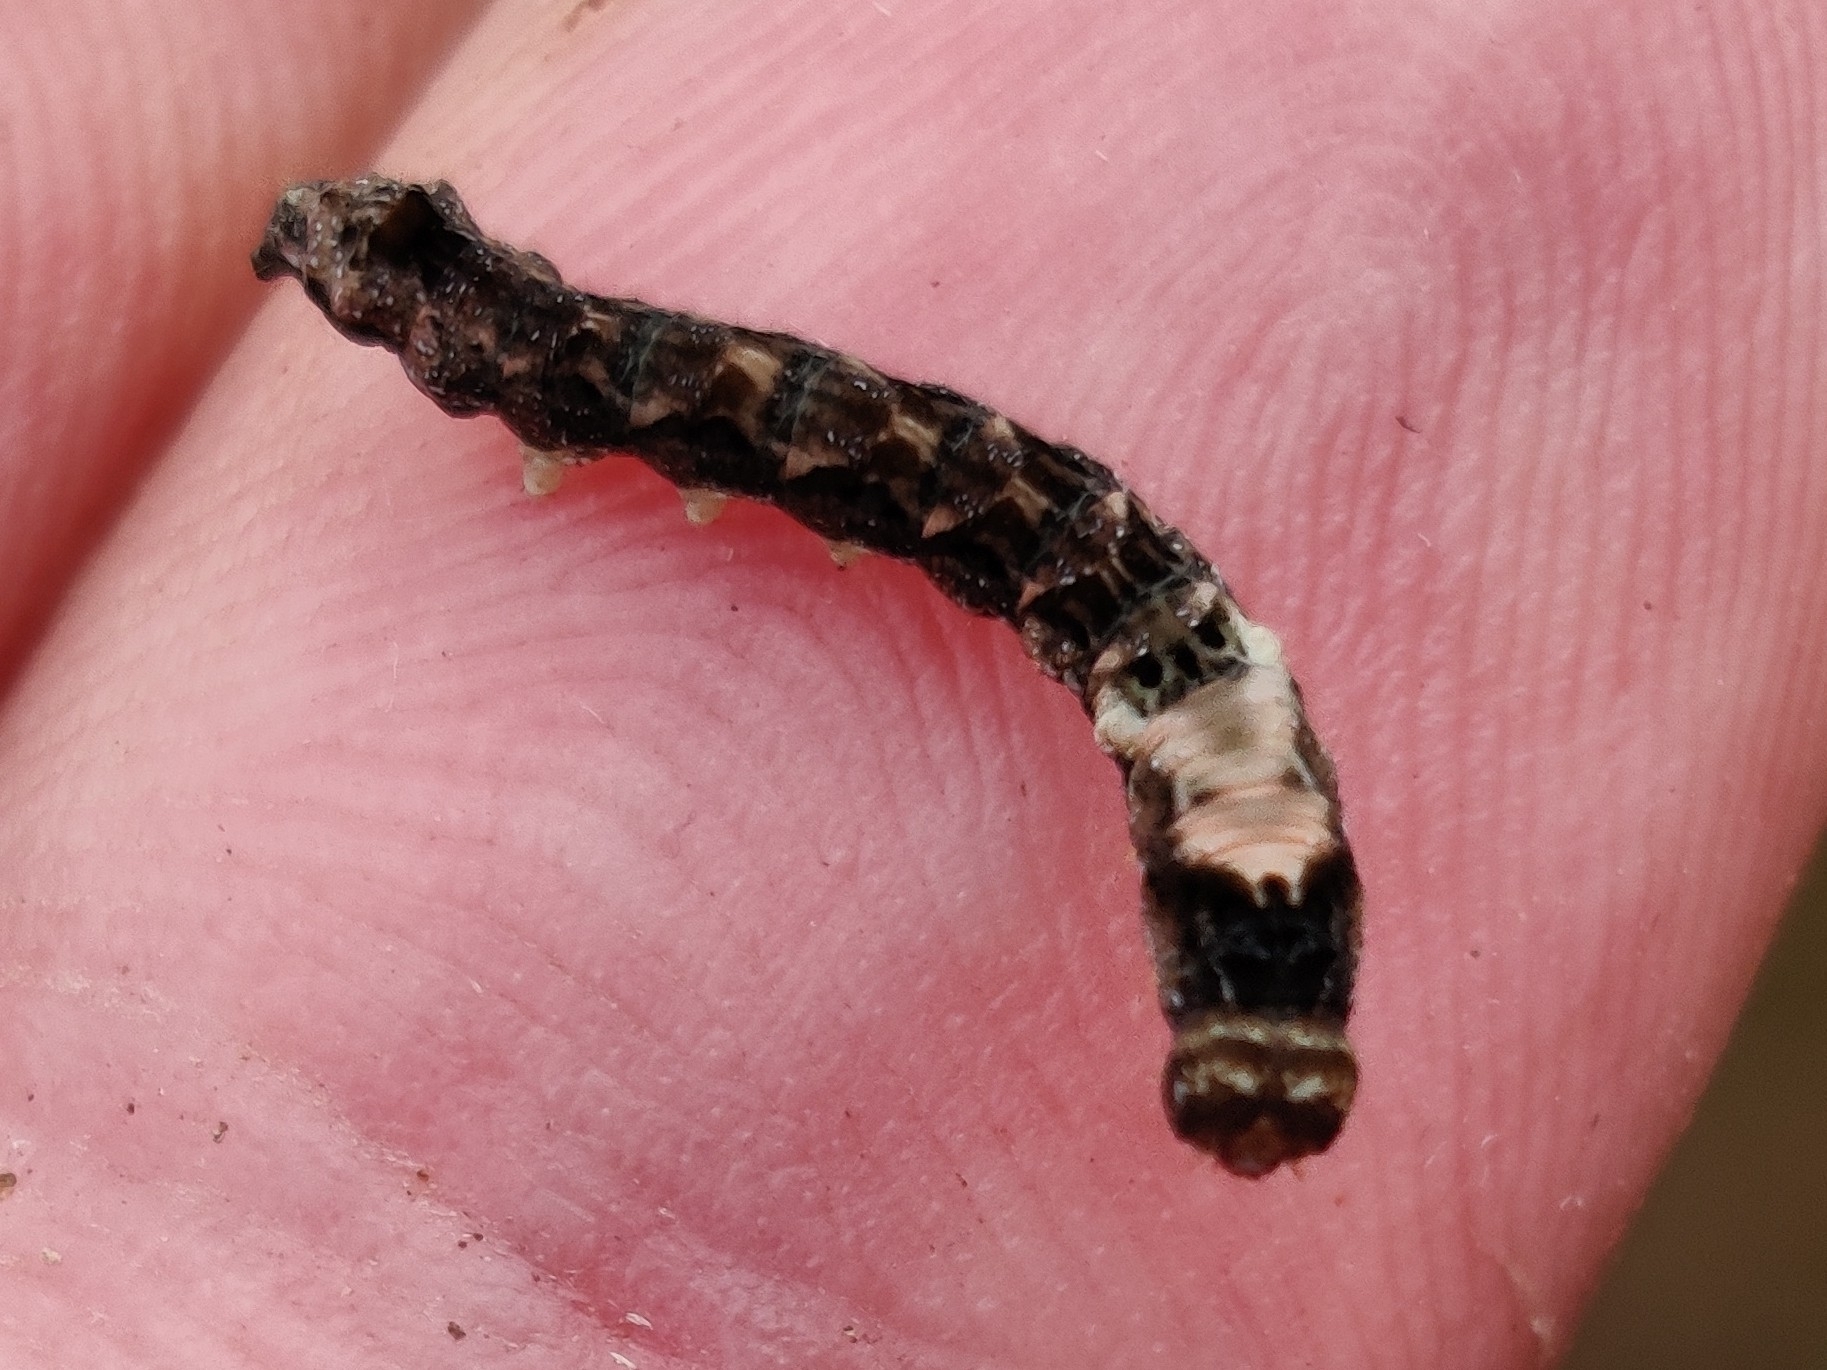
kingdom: Animalia
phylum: Arthropoda
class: Insecta
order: Lepidoptera
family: Drepanidae
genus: Thyatira
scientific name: Thyatira batis
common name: Peach blossom
